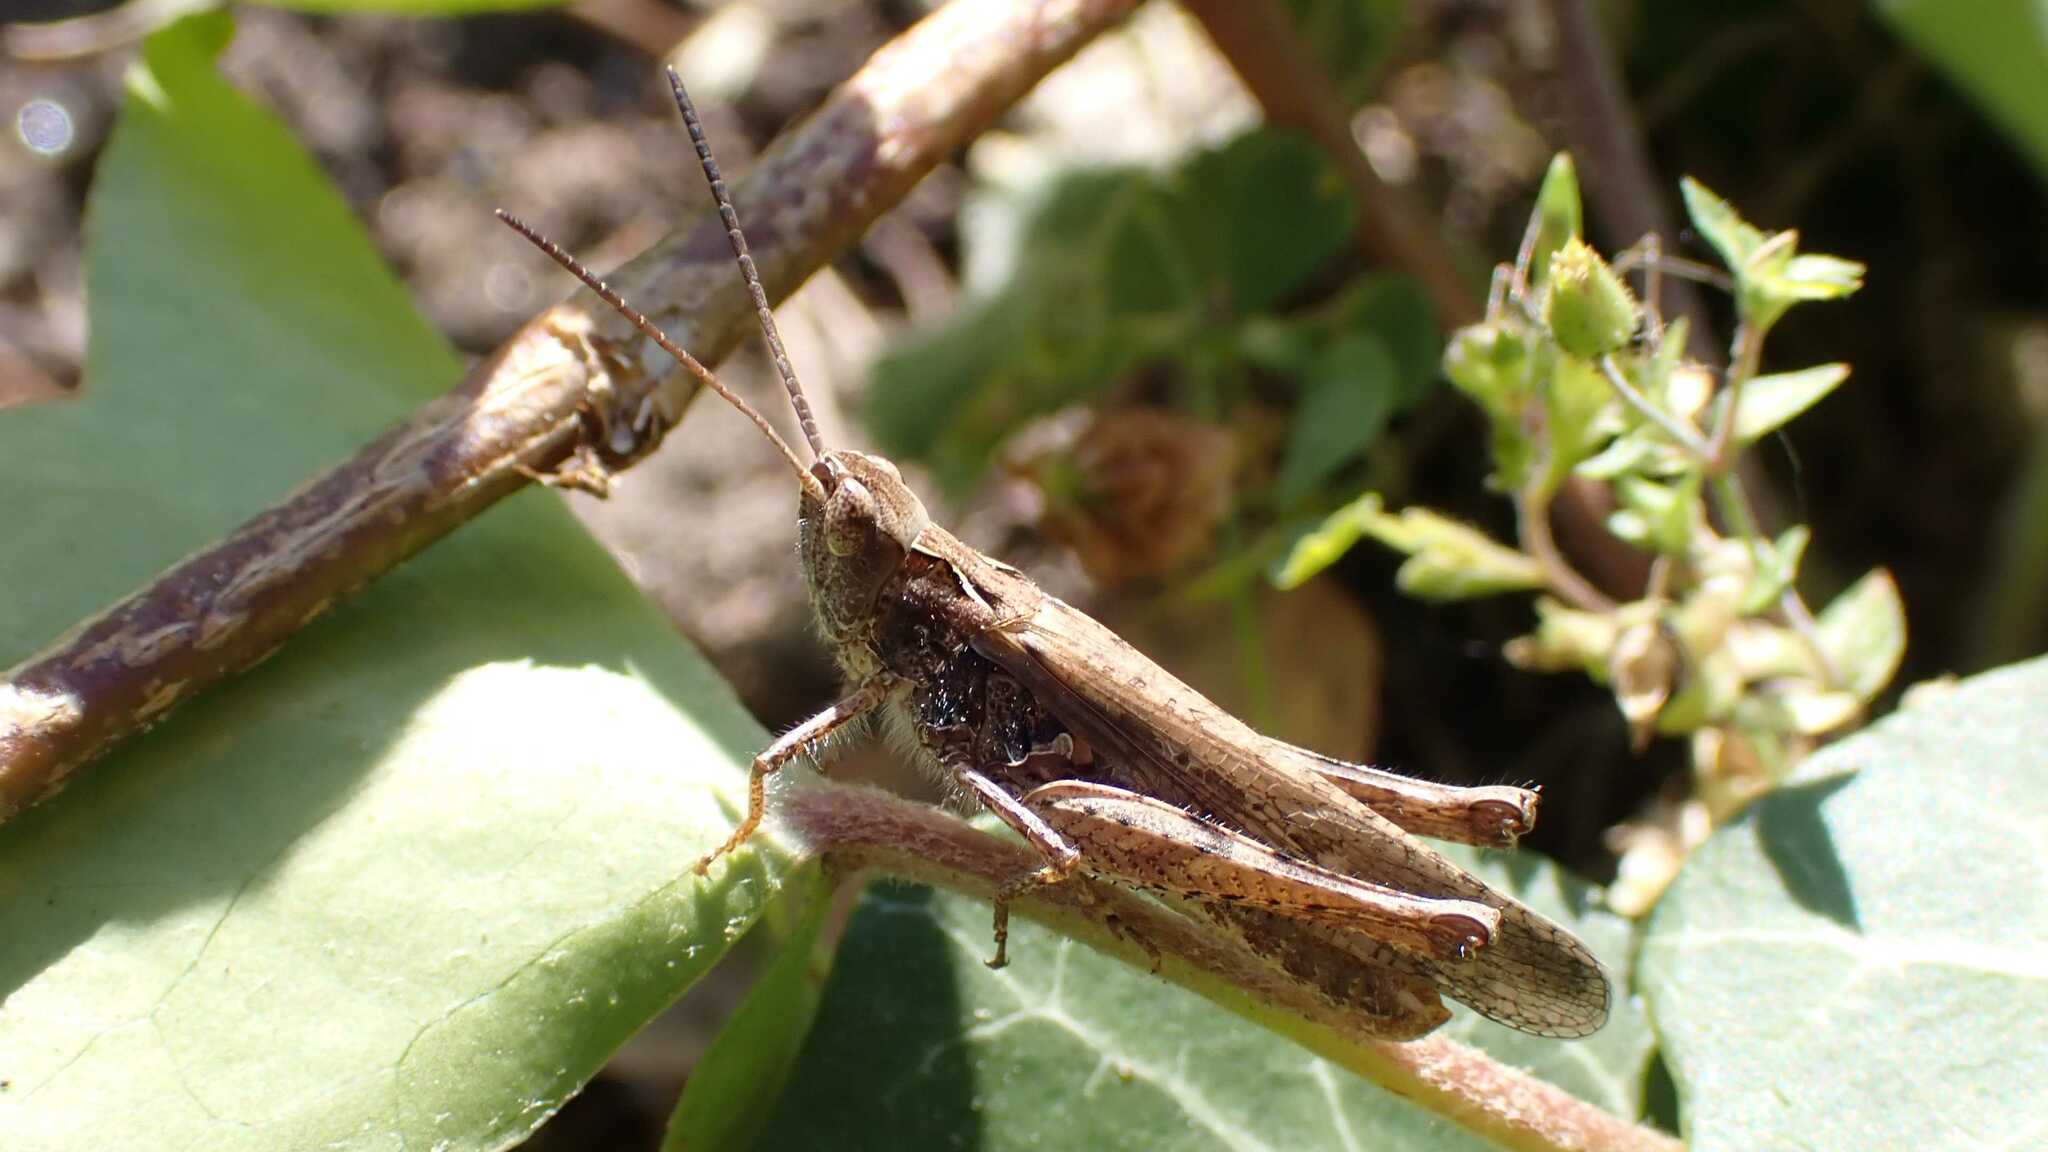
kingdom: Animalia
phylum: Arthropoda
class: Insecta
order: Orthoptera
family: Acrididae
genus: Chorthippus
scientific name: Chorthippus brunneus
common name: Field grasshopper
